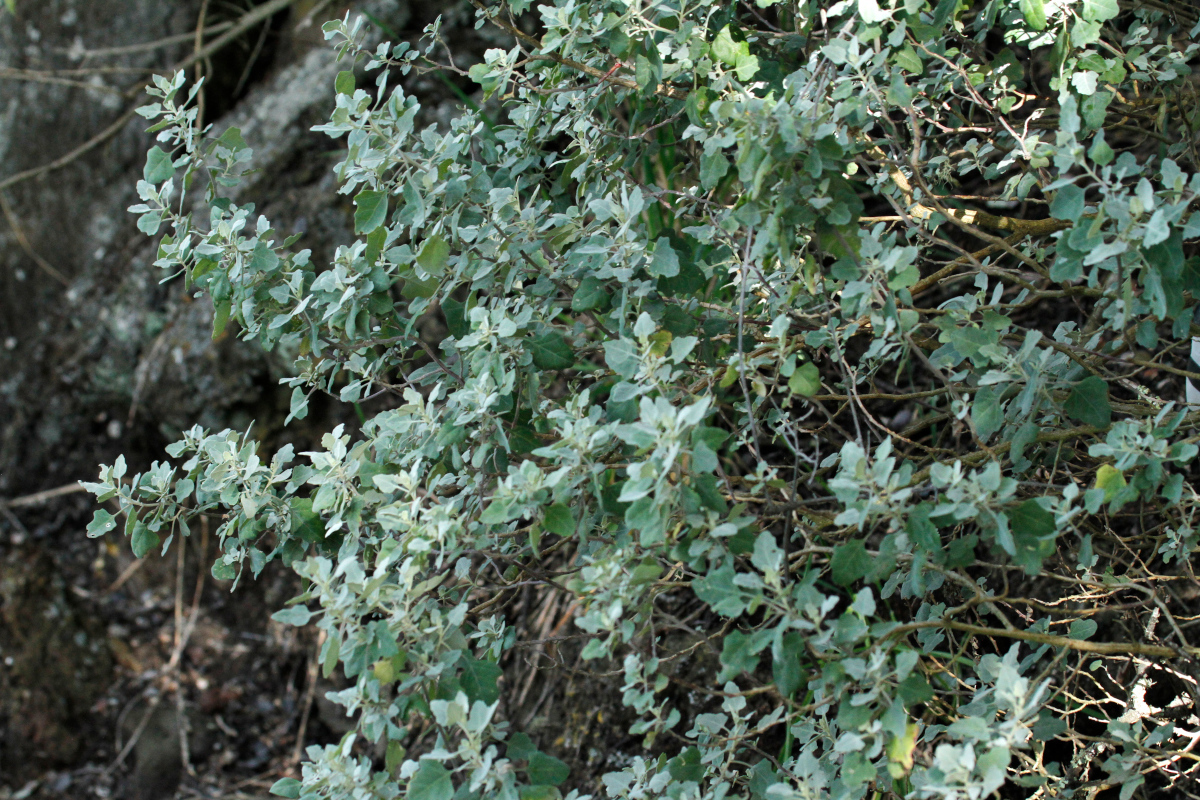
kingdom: Plantae
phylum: Tracheophyta
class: Magnoliopsida
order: Caryophyllales
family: Amaranthaceae
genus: Chenopodium
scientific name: Chenopodium oahuense
